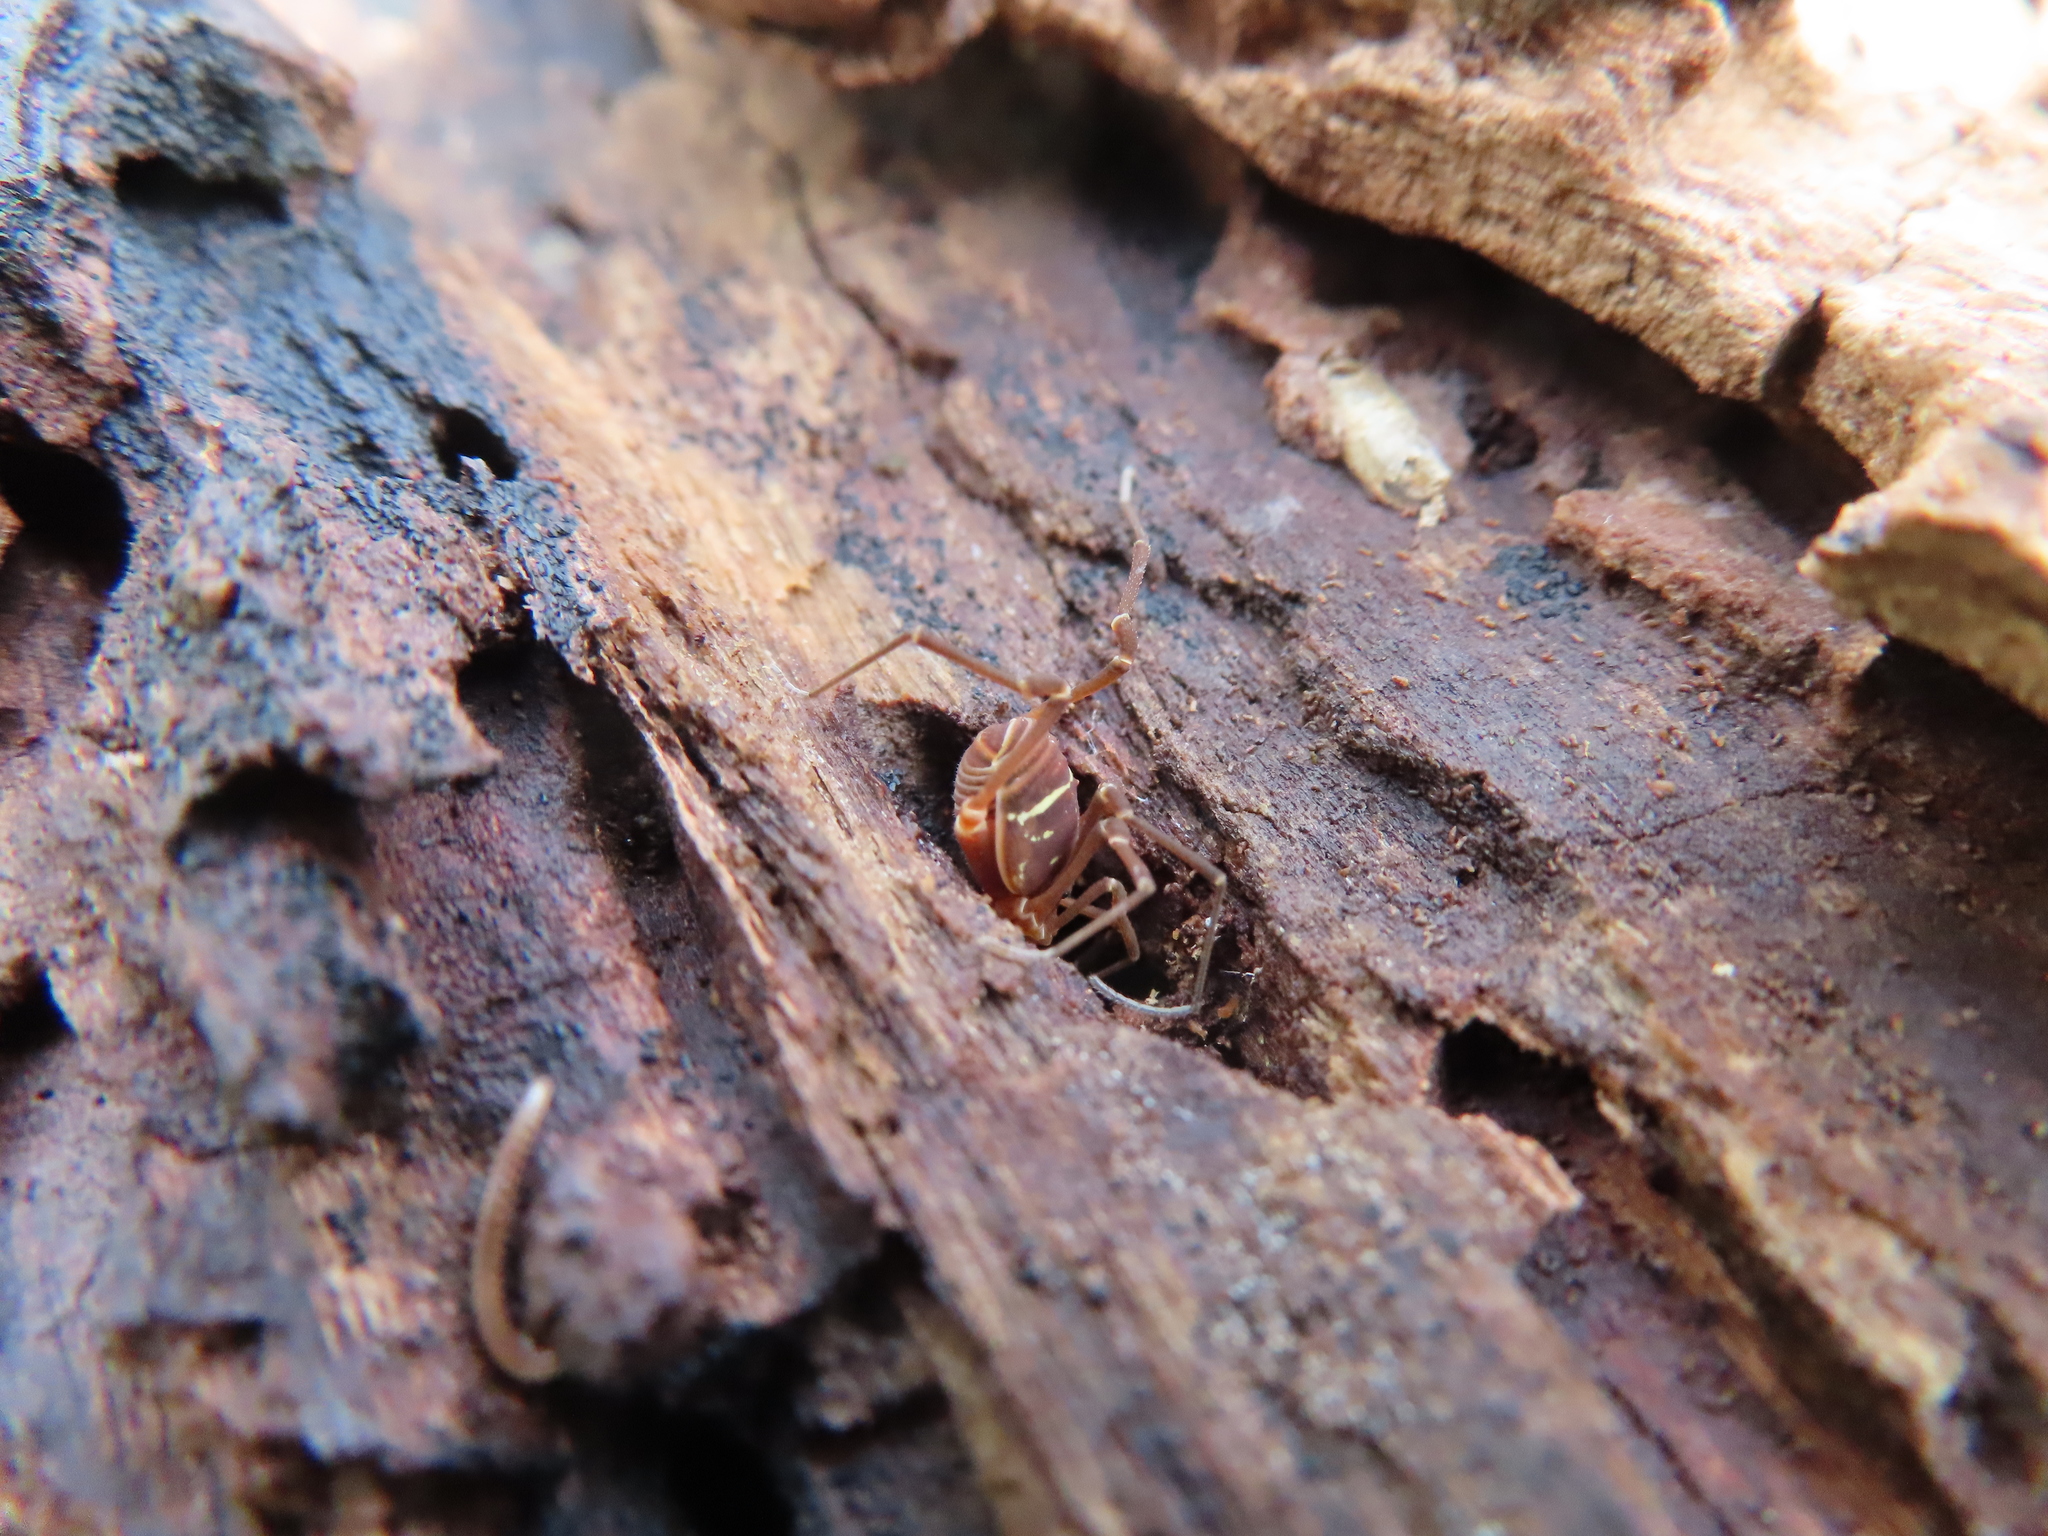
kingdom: Animalia
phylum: Arthropoda
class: Arachnida
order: Opiliones
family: Cosmetidae
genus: Libitioides
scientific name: Libitioides sayi
